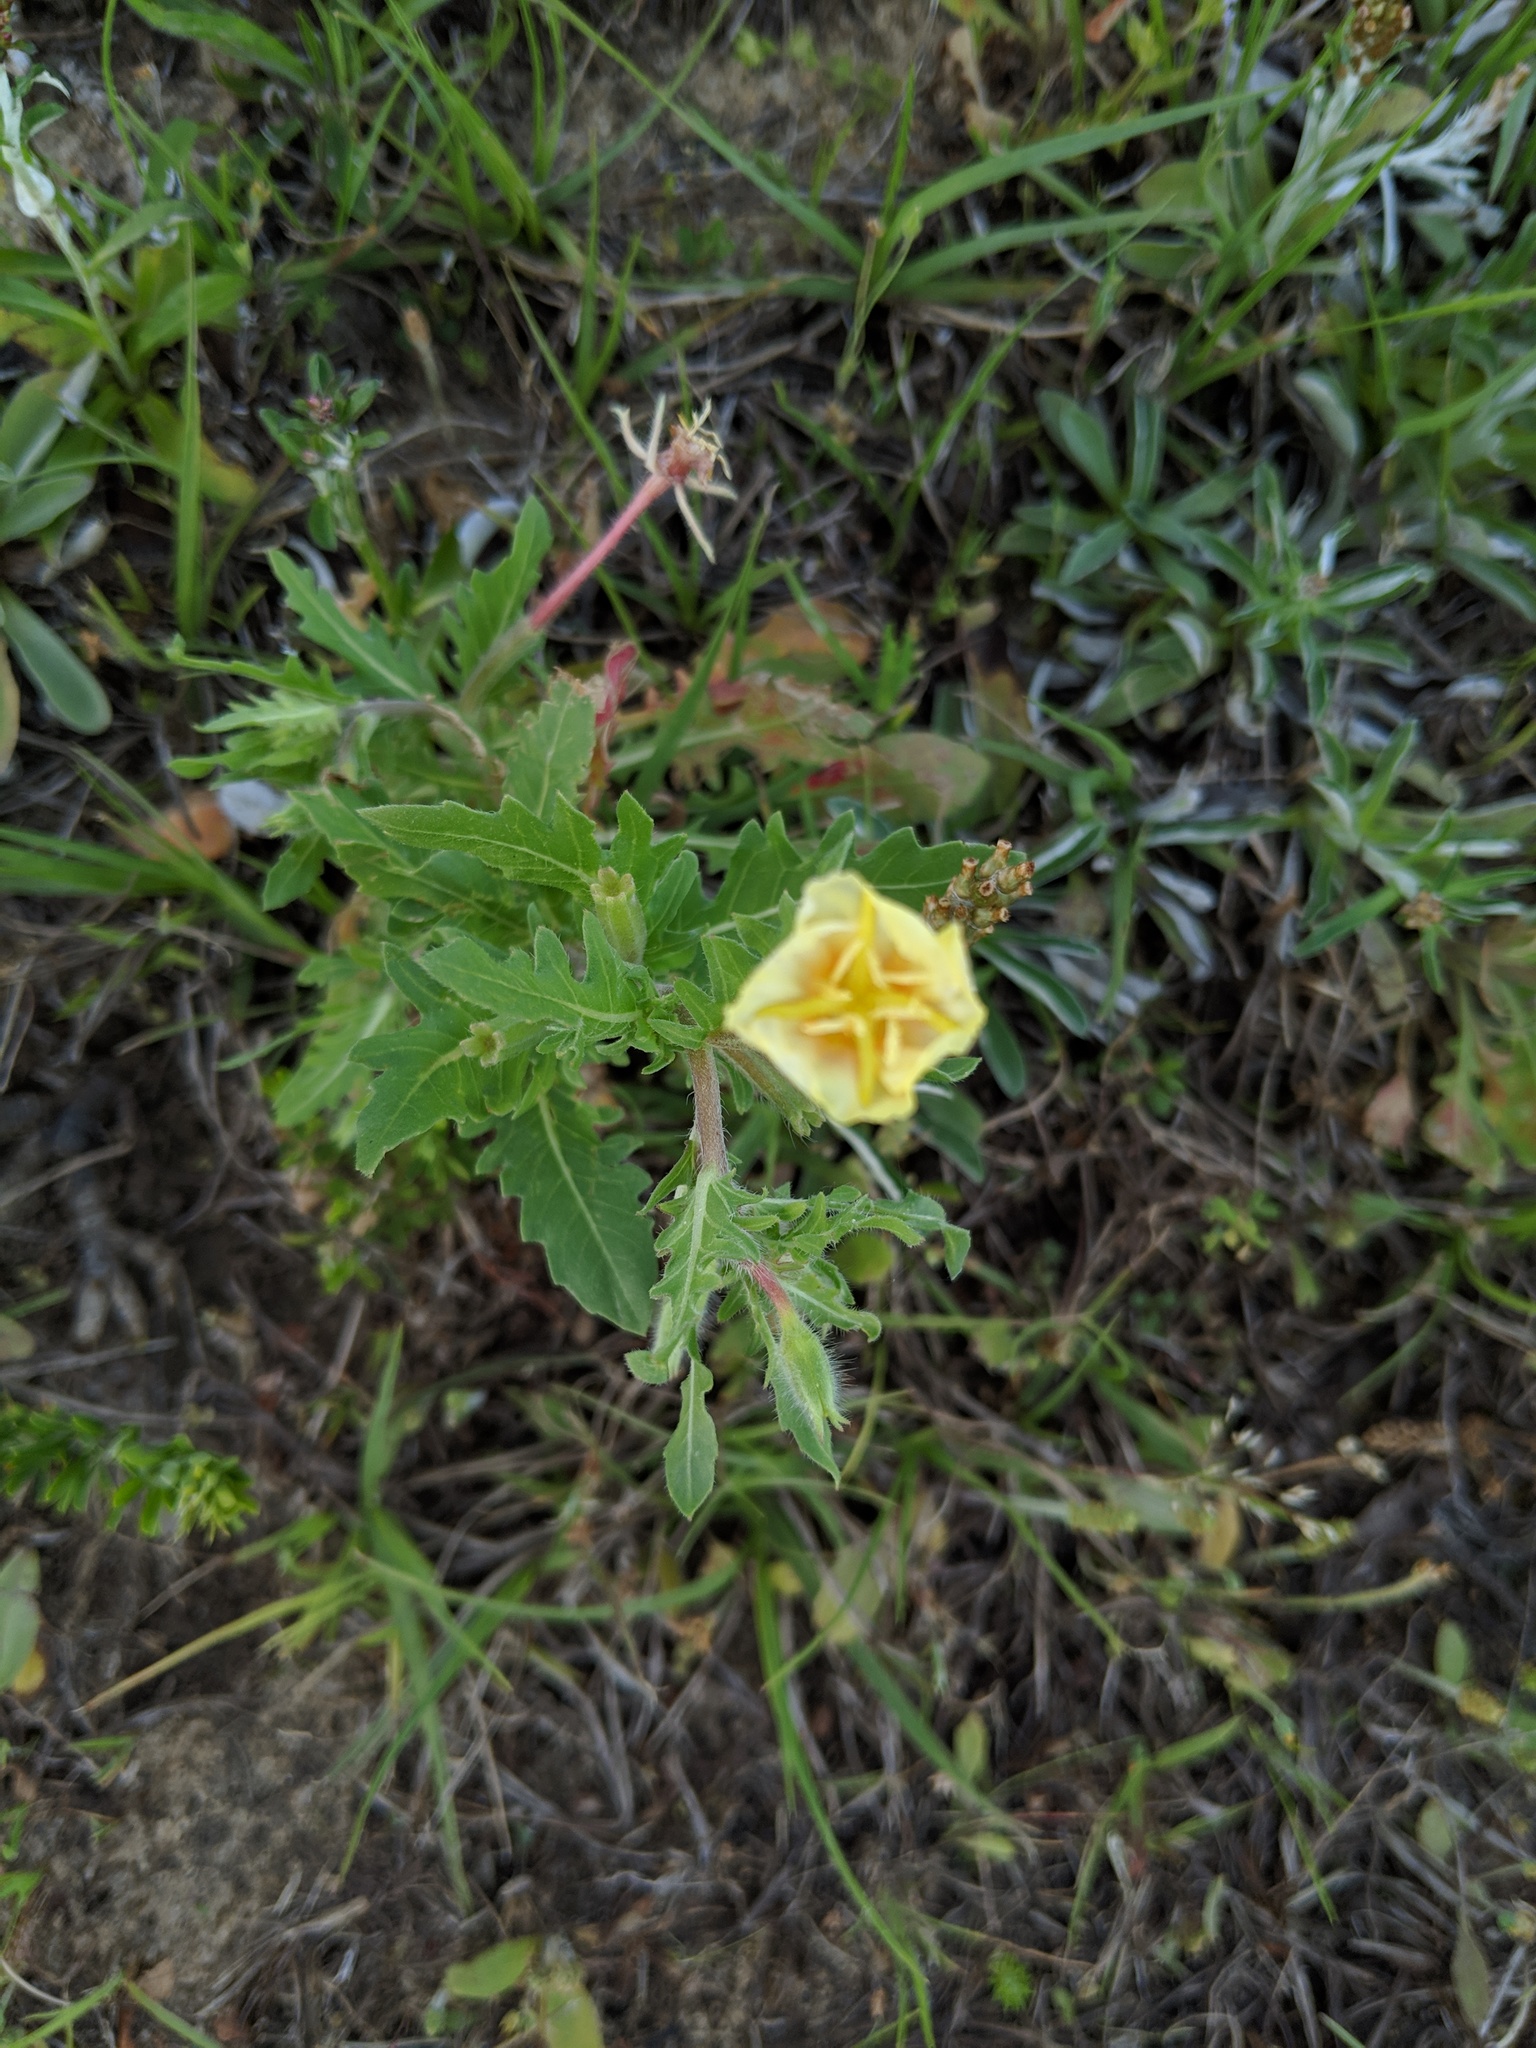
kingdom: Plantae
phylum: Tracheophyta
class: Magnoliopsida
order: Myrtales
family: Onagraceae
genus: Oenothera
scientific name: Oenothera laciniata
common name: Cut-leaved evening-primrose
